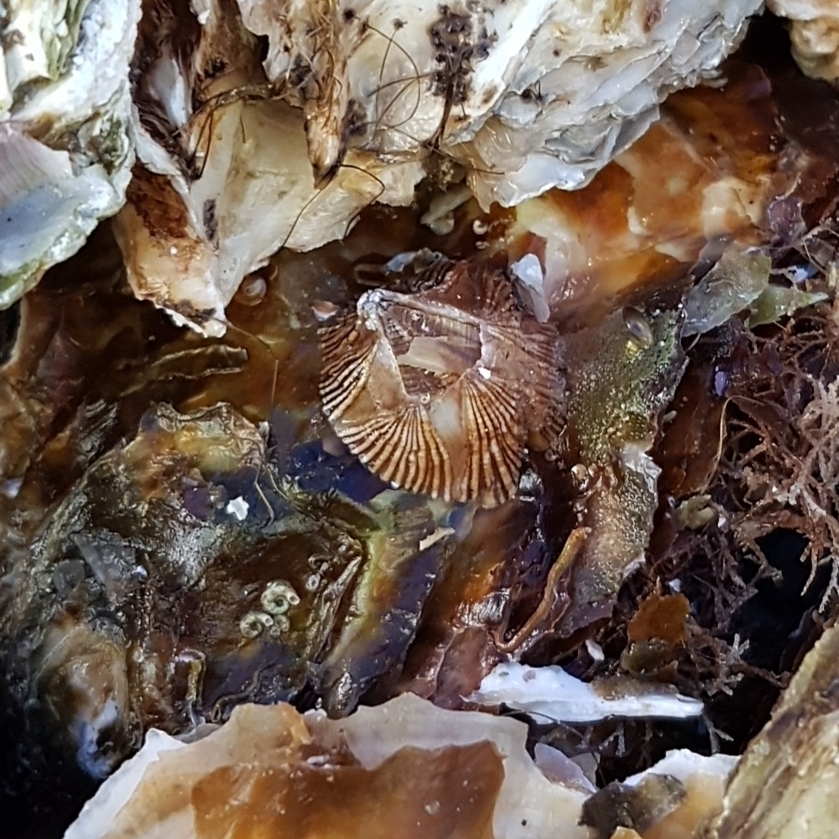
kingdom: Animalia
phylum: Arthropoda
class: Maxillopoda
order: Sessilia
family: Balanidae
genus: Balanus
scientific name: Balanus trigonus
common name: Triangle barnacle
